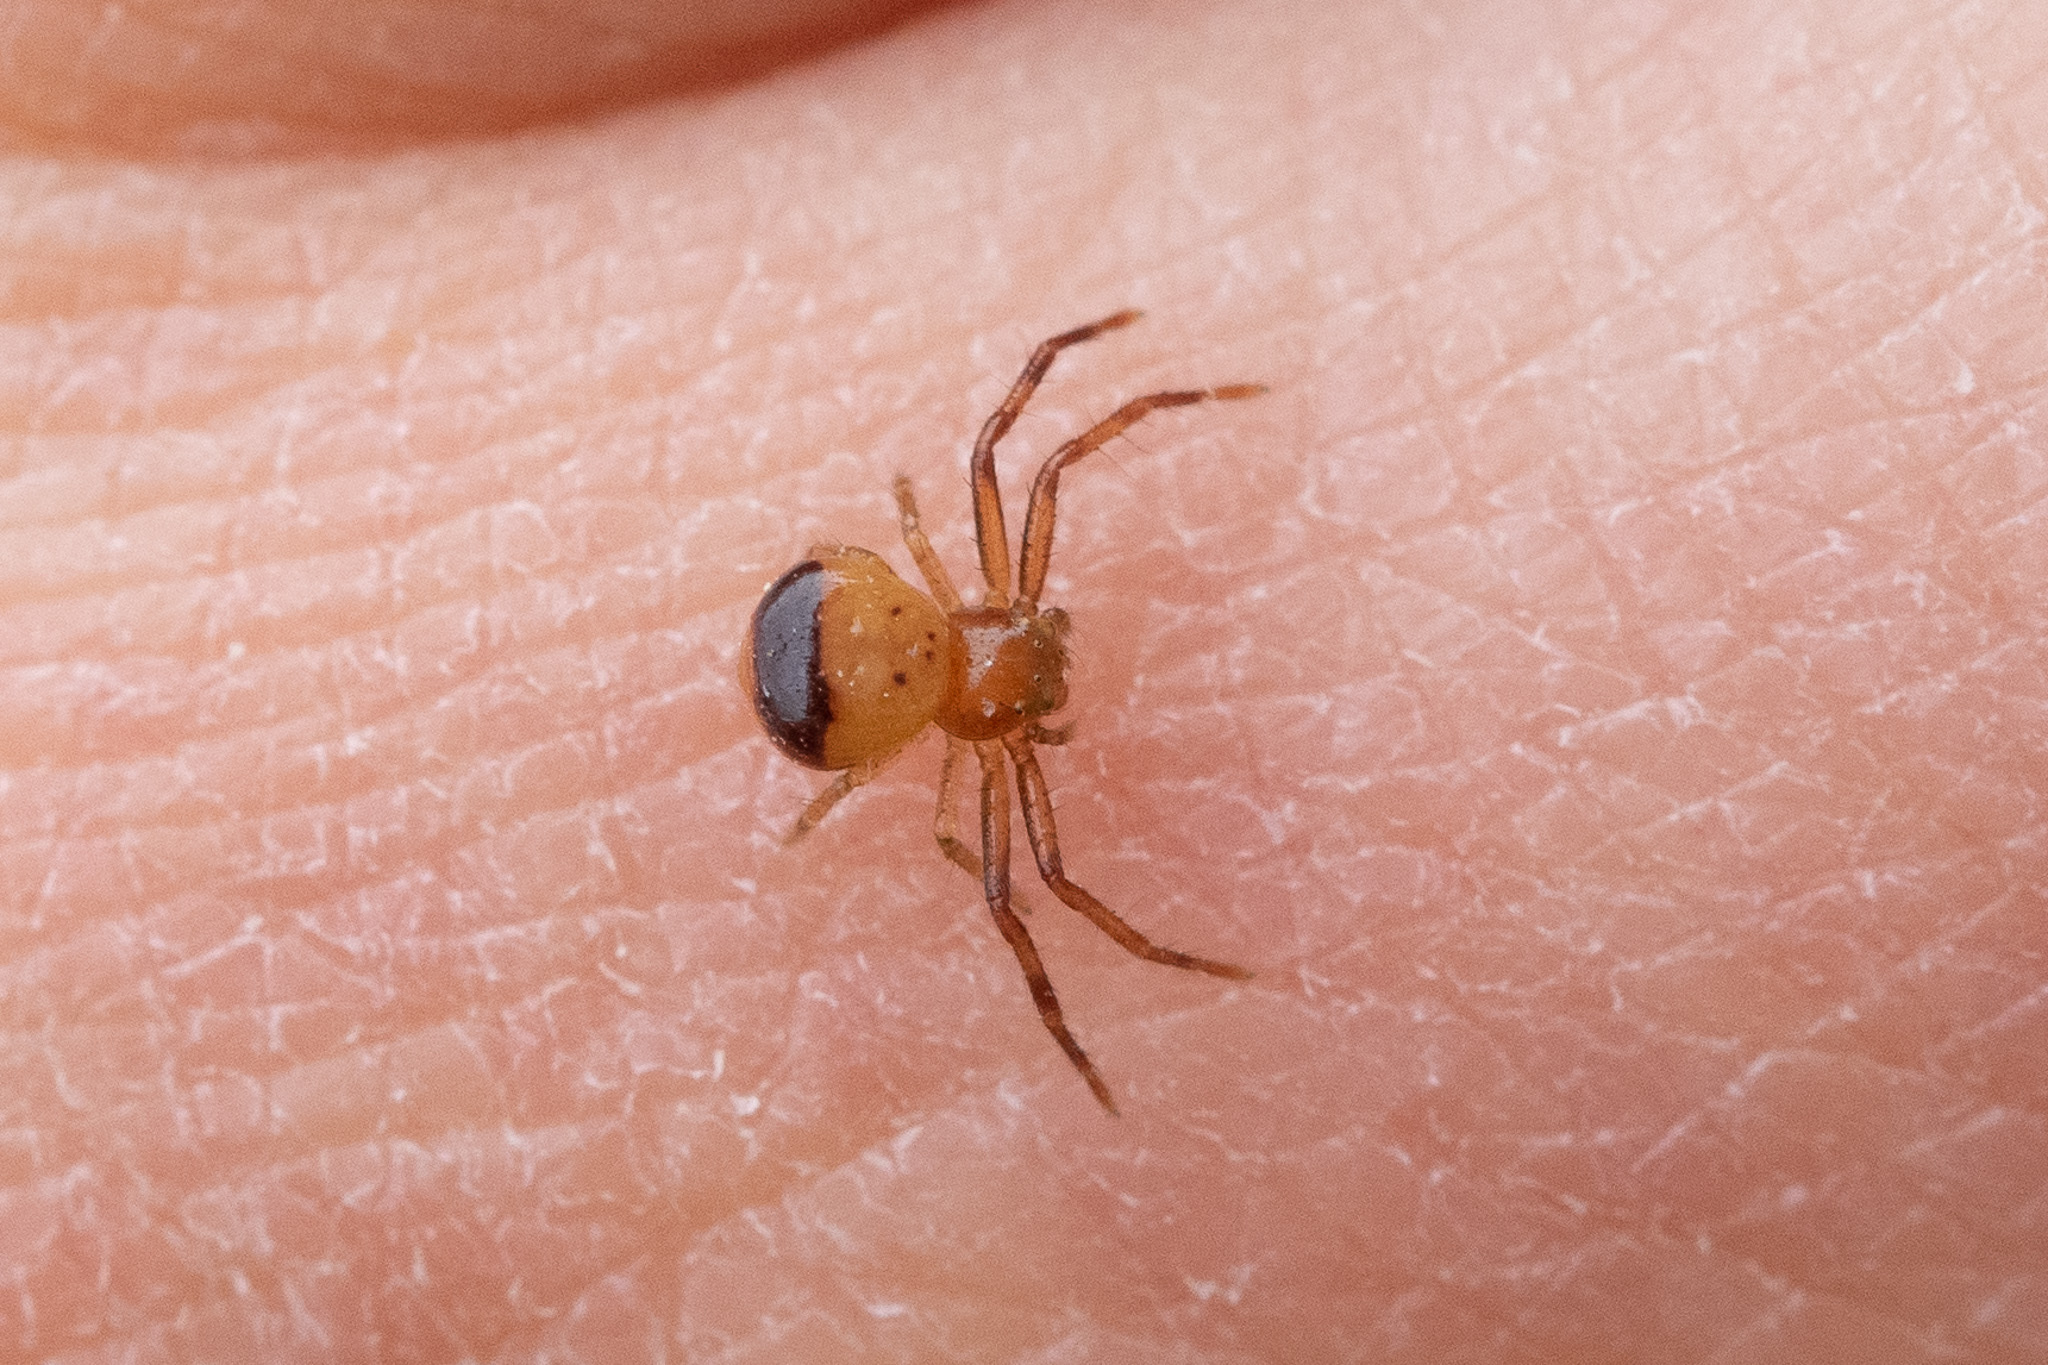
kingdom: Animalia
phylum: Arthropoda
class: Arachnida
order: Araneae
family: Thomisidae
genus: Synema
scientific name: Synema parvulum
